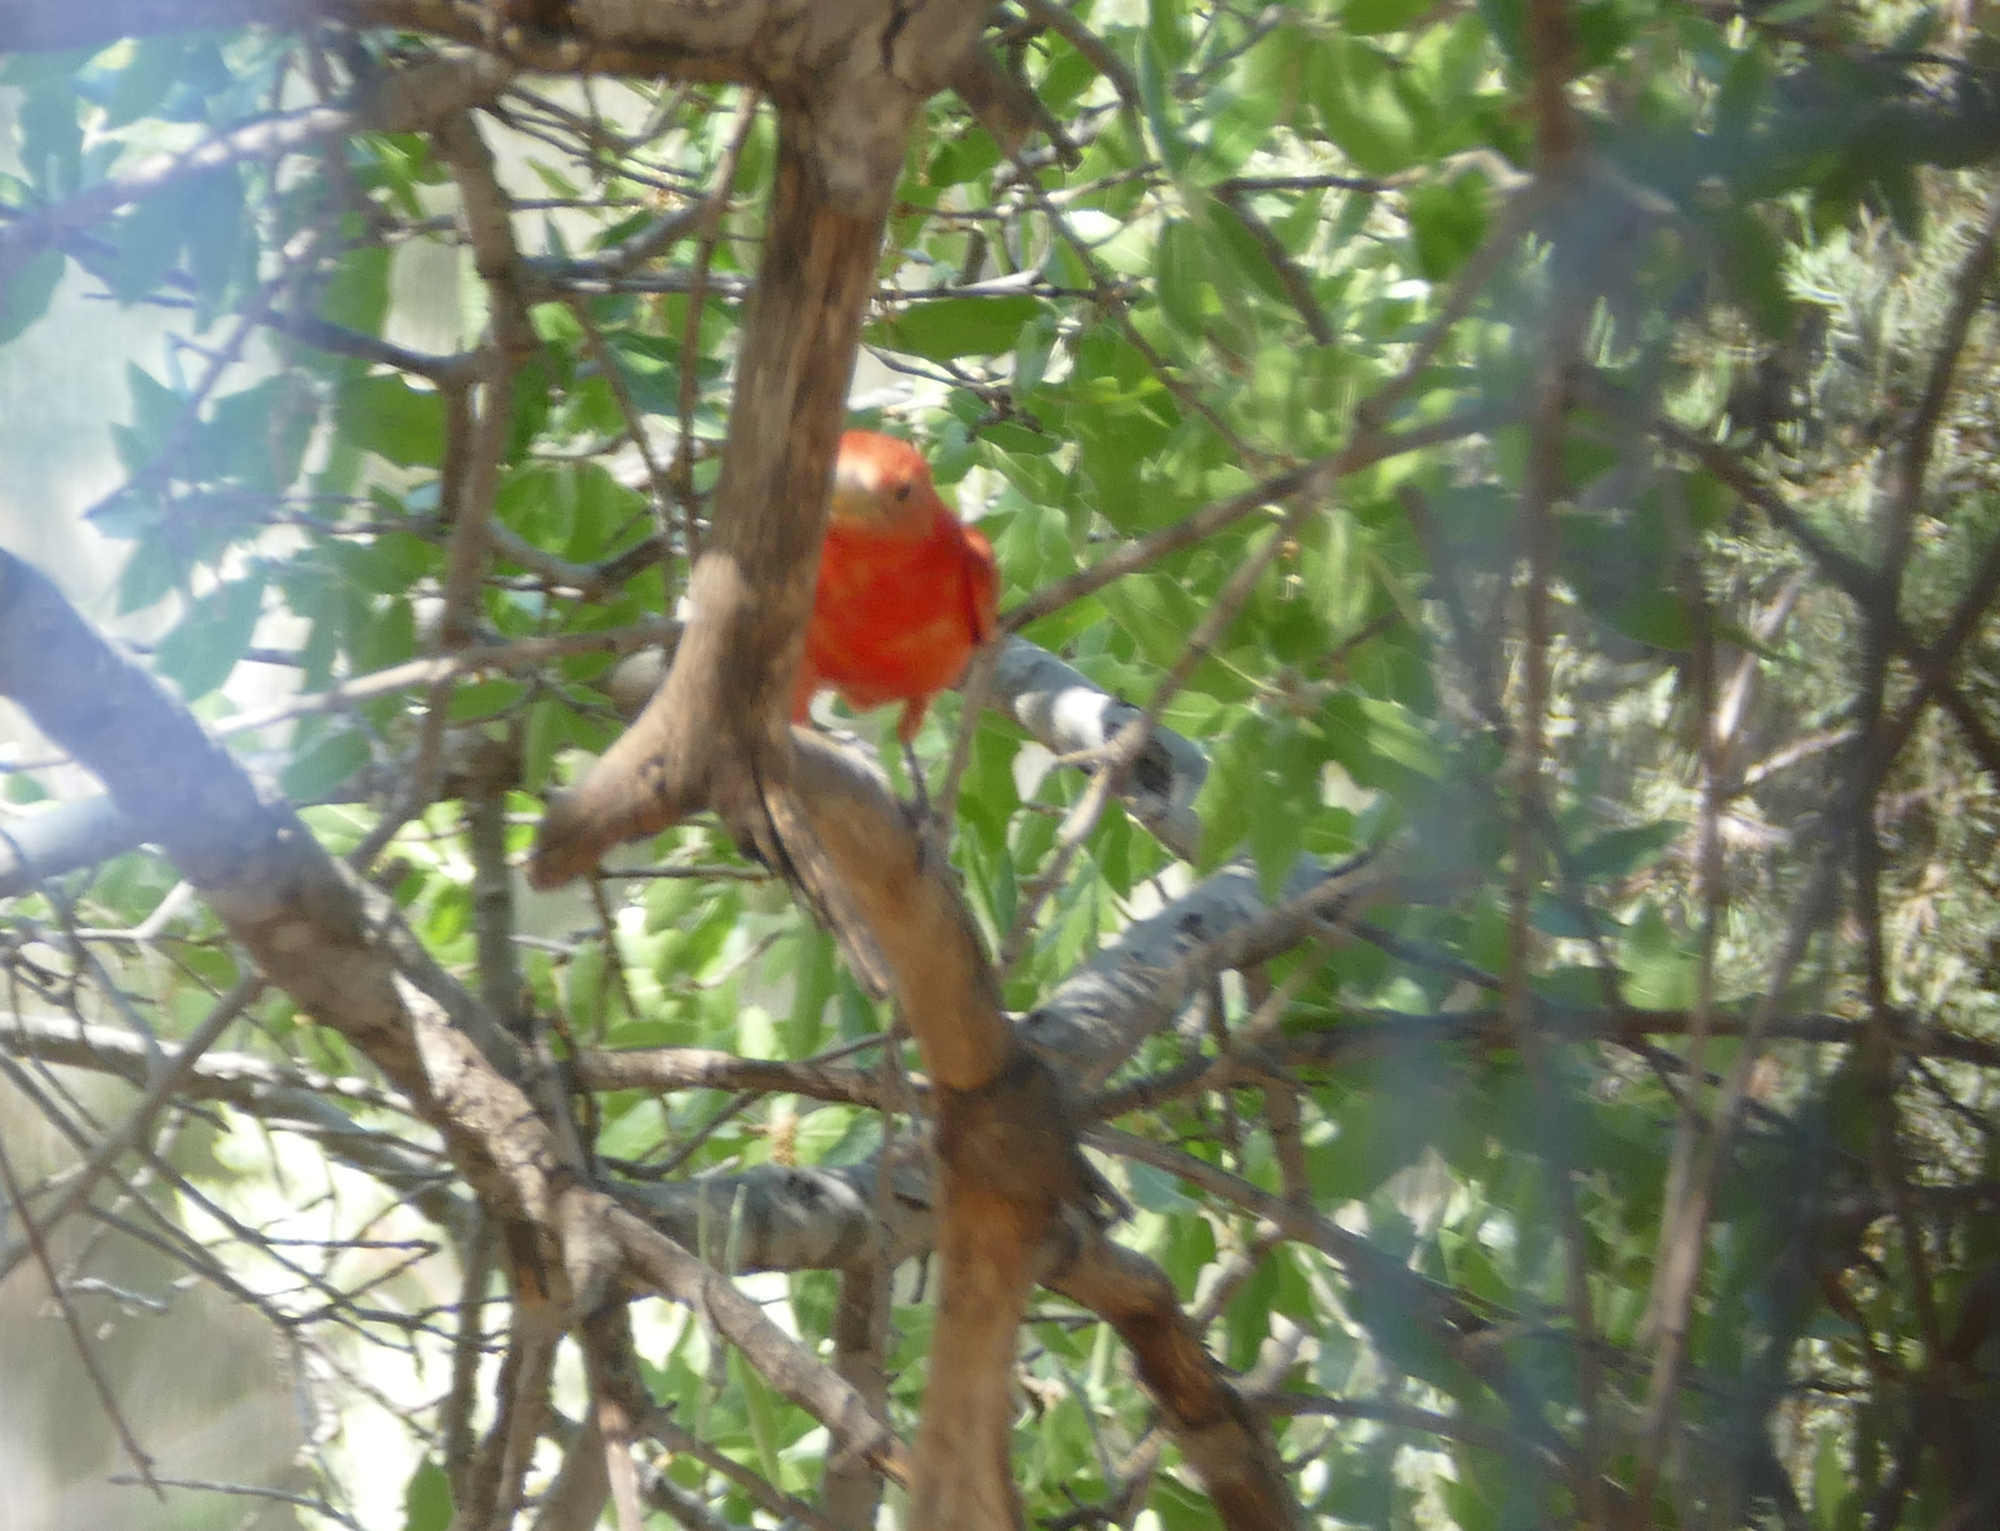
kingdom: Animalia
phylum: Chordata
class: Aves
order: Passeriformes
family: Cardinalidae
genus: Piranga
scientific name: Piranga rubra
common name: Summer tanager
